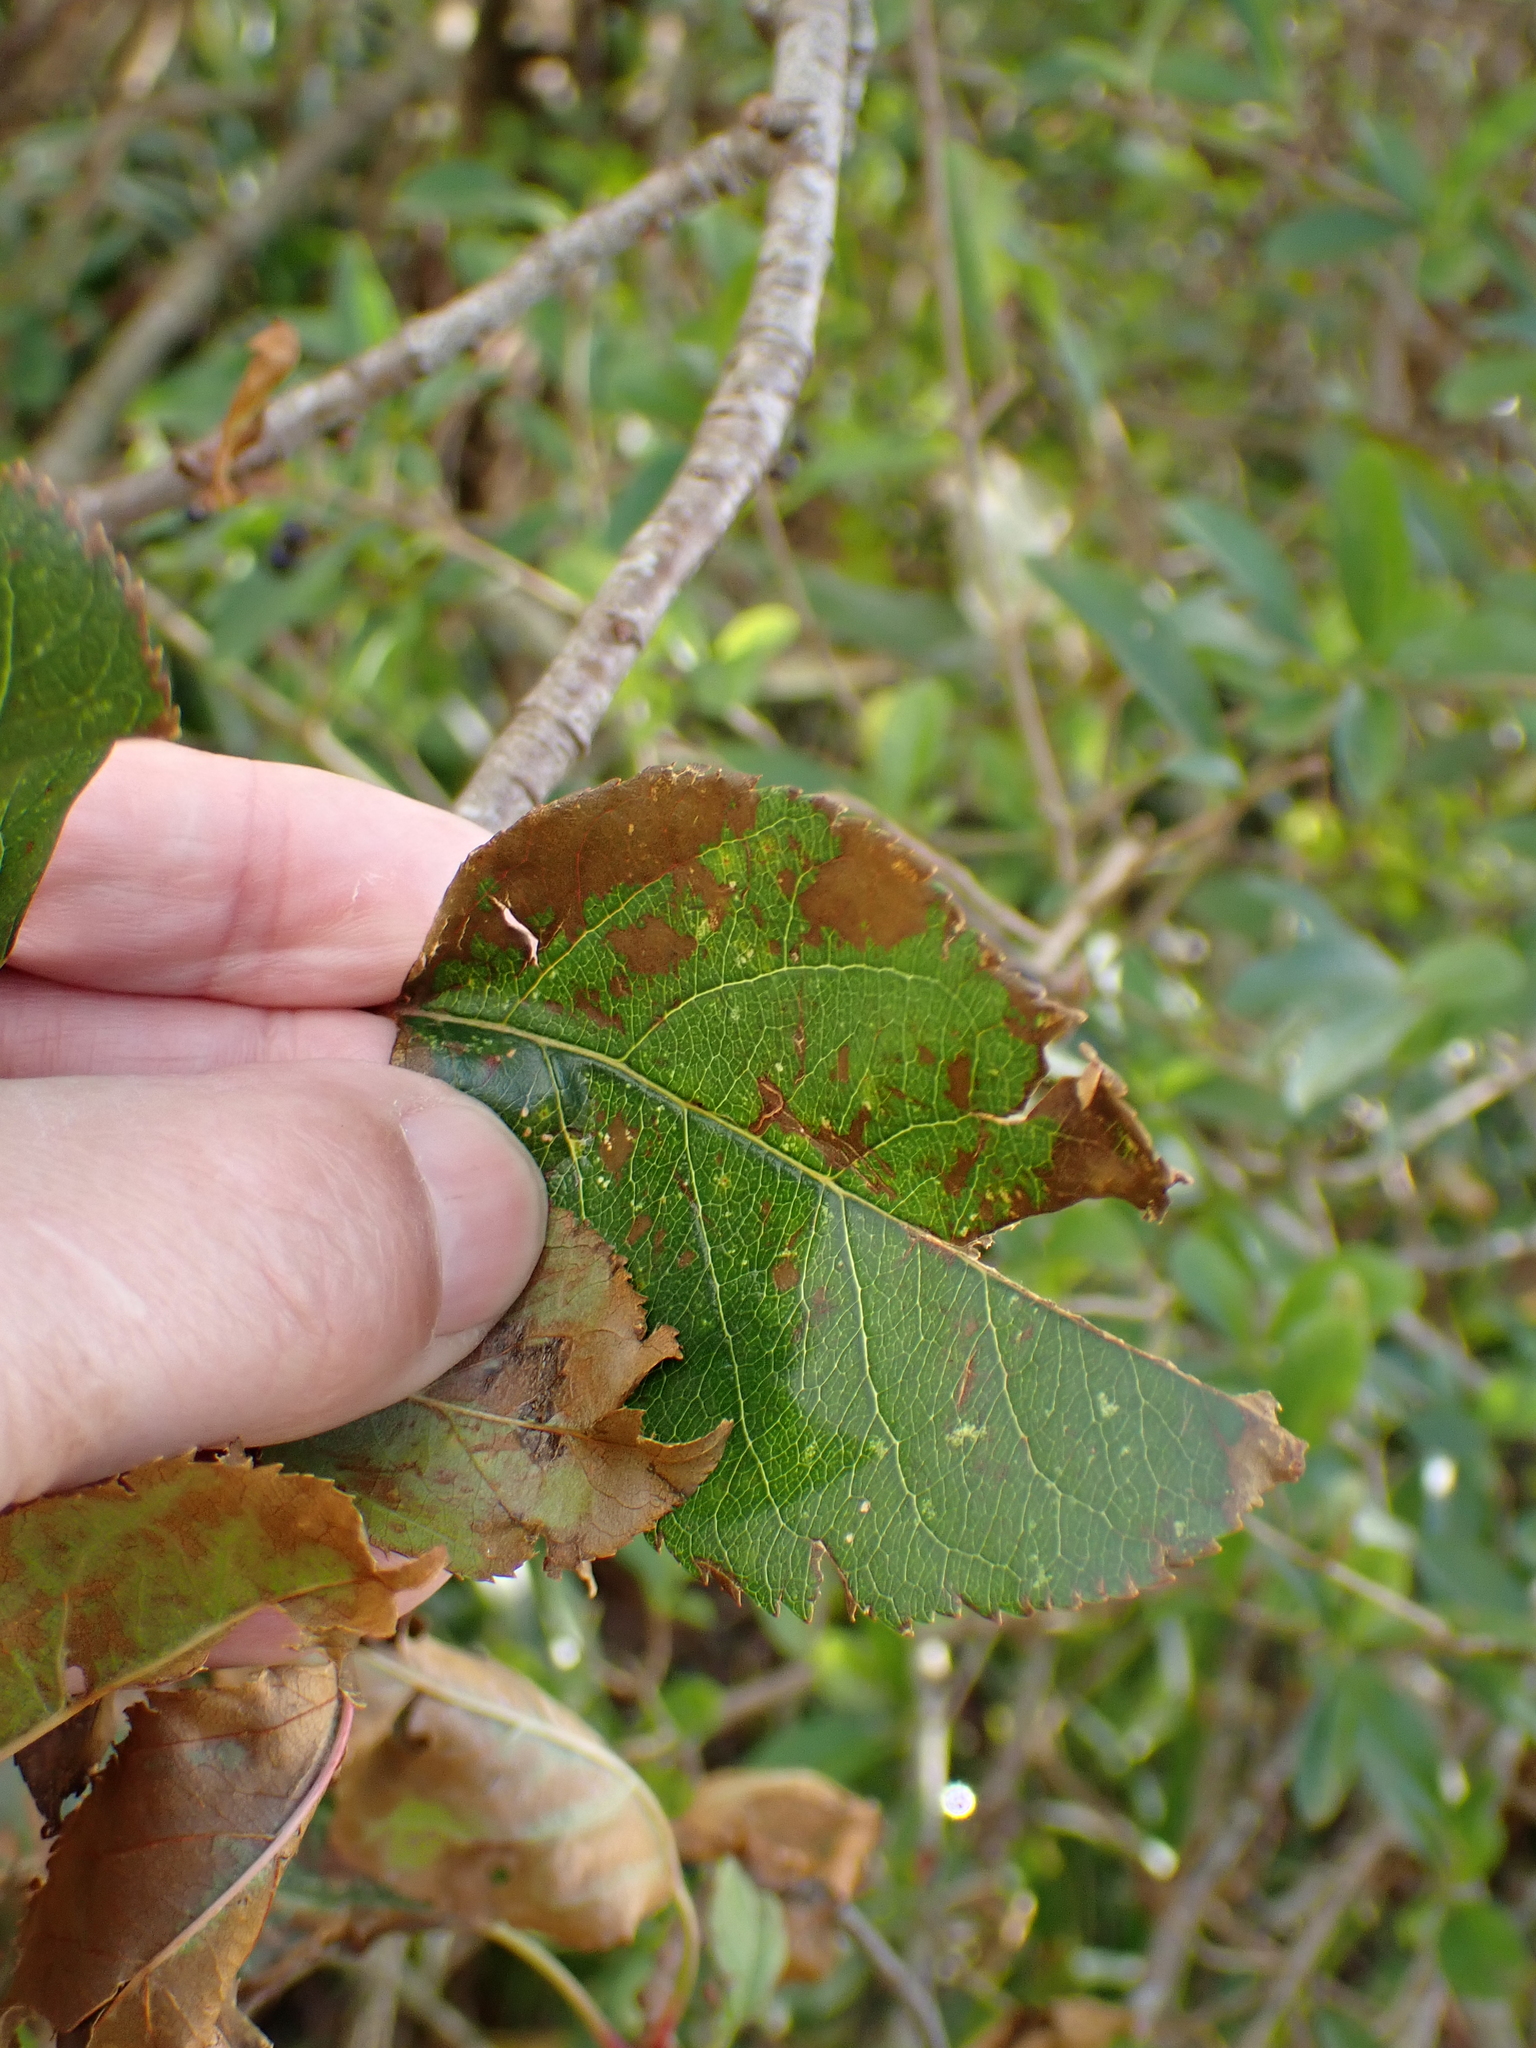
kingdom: Plantae
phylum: Tracheophyta
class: Magnoliopsida
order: Rosales
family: Rosaceae
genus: Malus
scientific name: Malus domestica
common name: Apple
